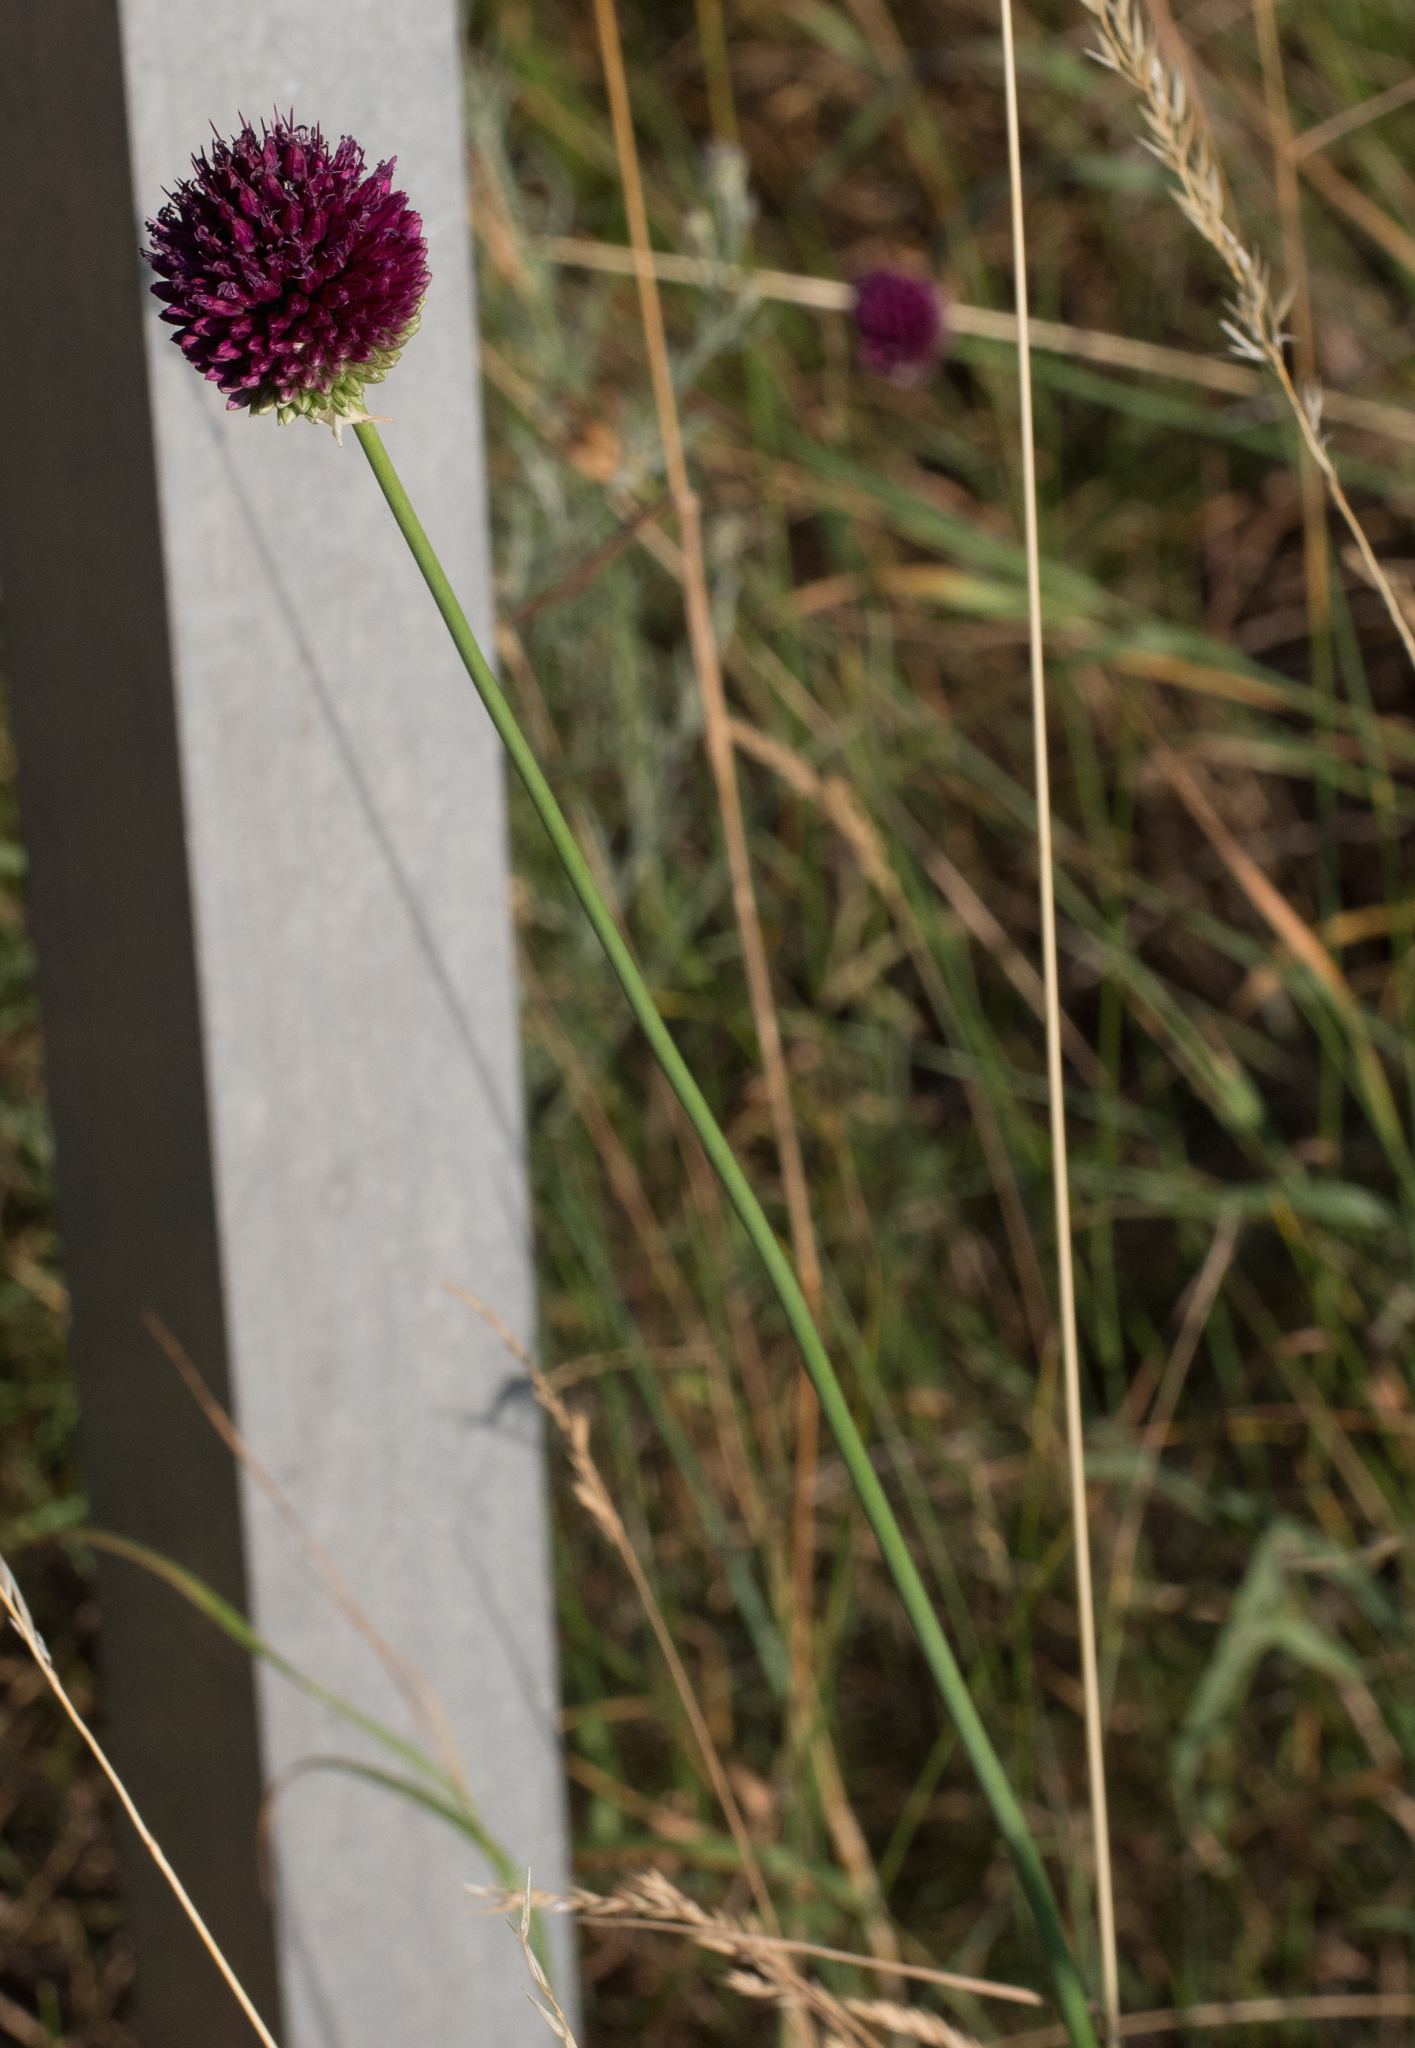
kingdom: Plantae
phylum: Tracheophyta
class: Liliopsida
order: Asparagales
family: Amaryllidaceae
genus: Allium
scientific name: Allium sphaerocephalon
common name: Round-headed leek
